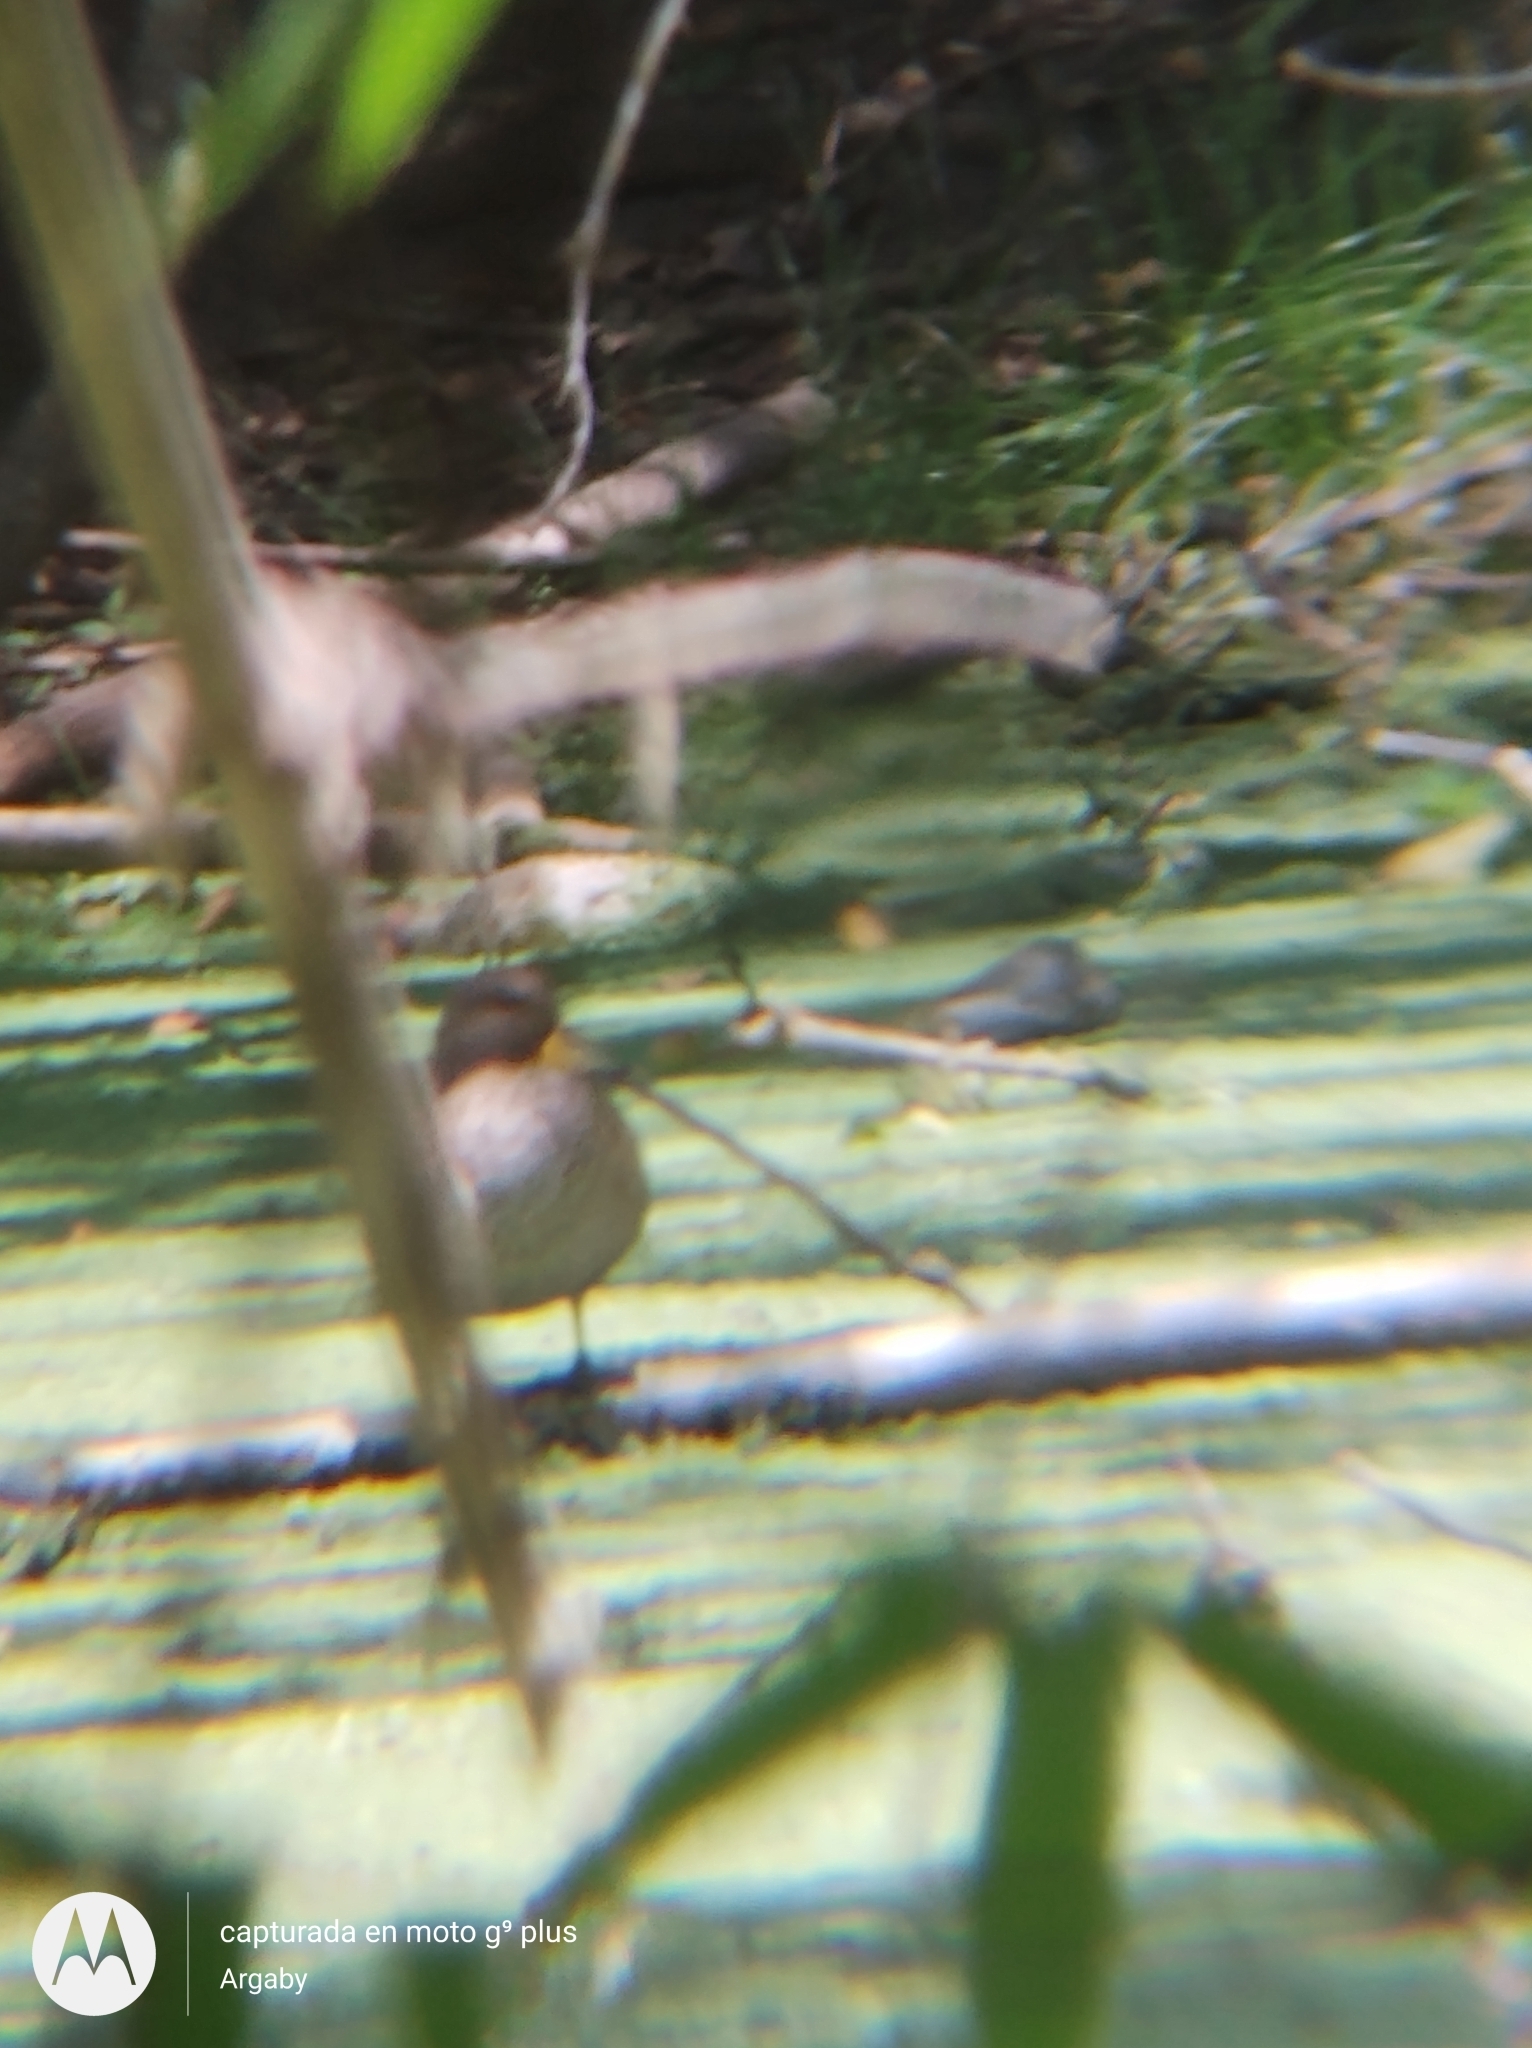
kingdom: Animalia
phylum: Chordata
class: Aves
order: Anseriformes
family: Anatidae
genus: Anas
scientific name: Anas flavirostris
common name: Yellow-billed teal
